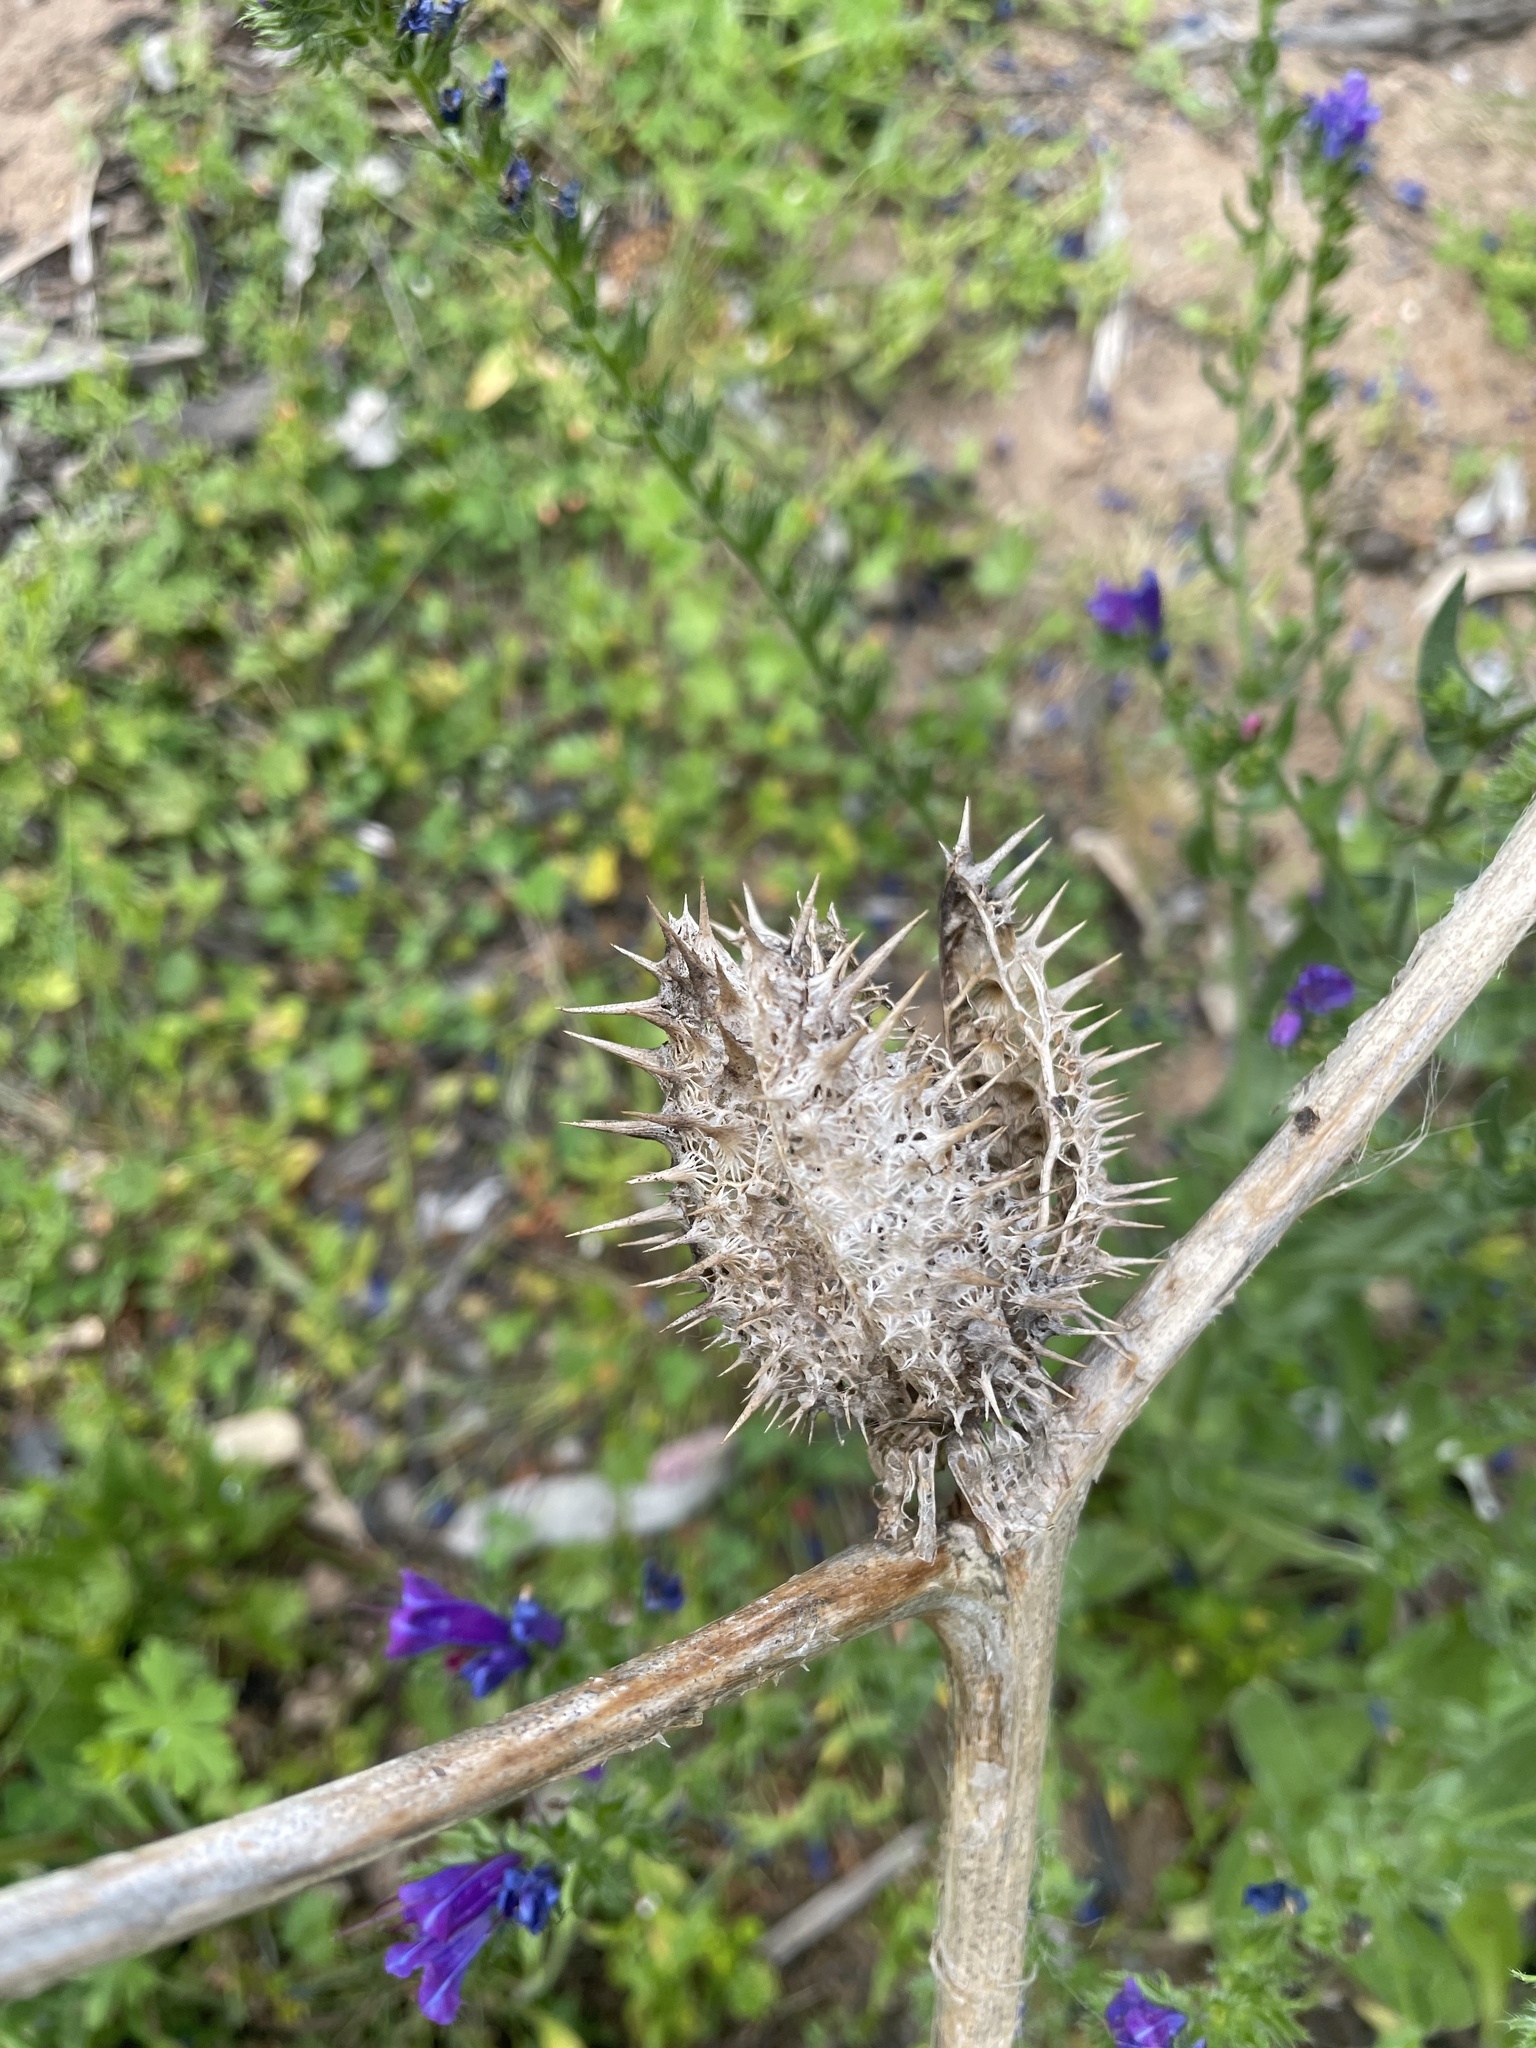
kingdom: Plantae
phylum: Tracheophyta
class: Magnoliopsida
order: Solanales
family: Solanaceae
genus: Datura
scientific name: Datura stramonium
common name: Thorn-apple
